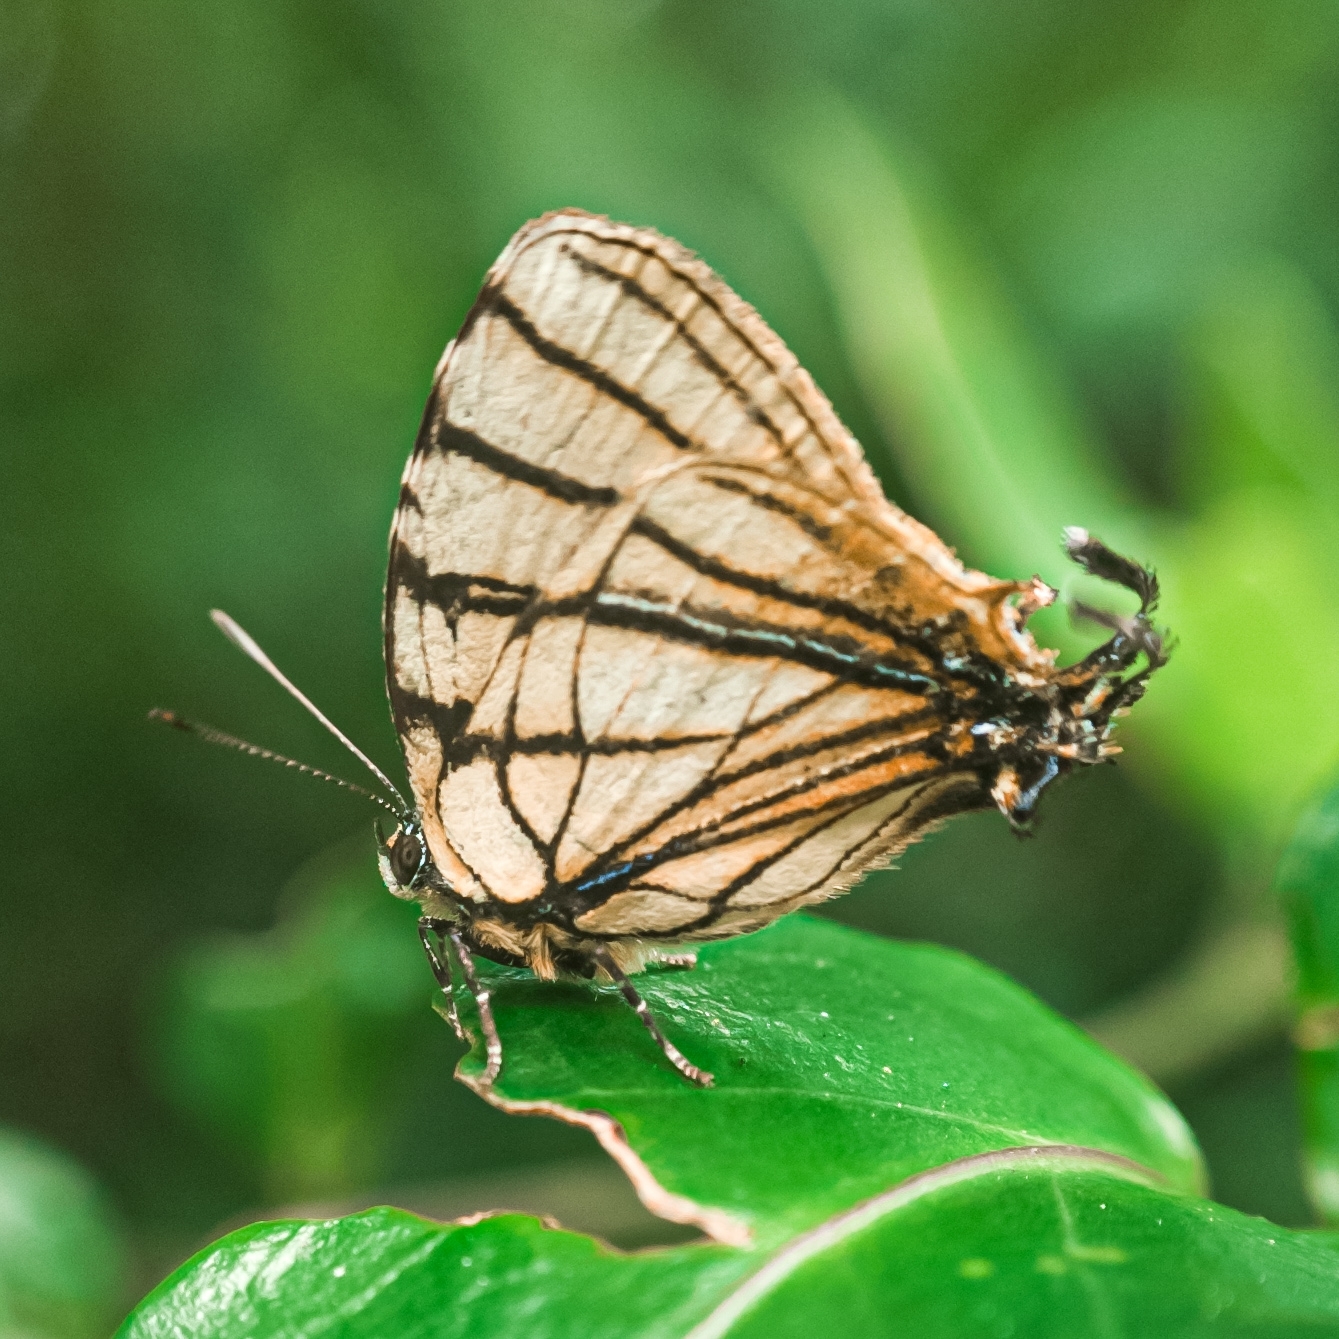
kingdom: Animalia
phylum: Arthropoda
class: Insecta
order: Lepidoptera
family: Lycaenidae
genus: Arawacus
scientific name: Arawacus melibaeus
